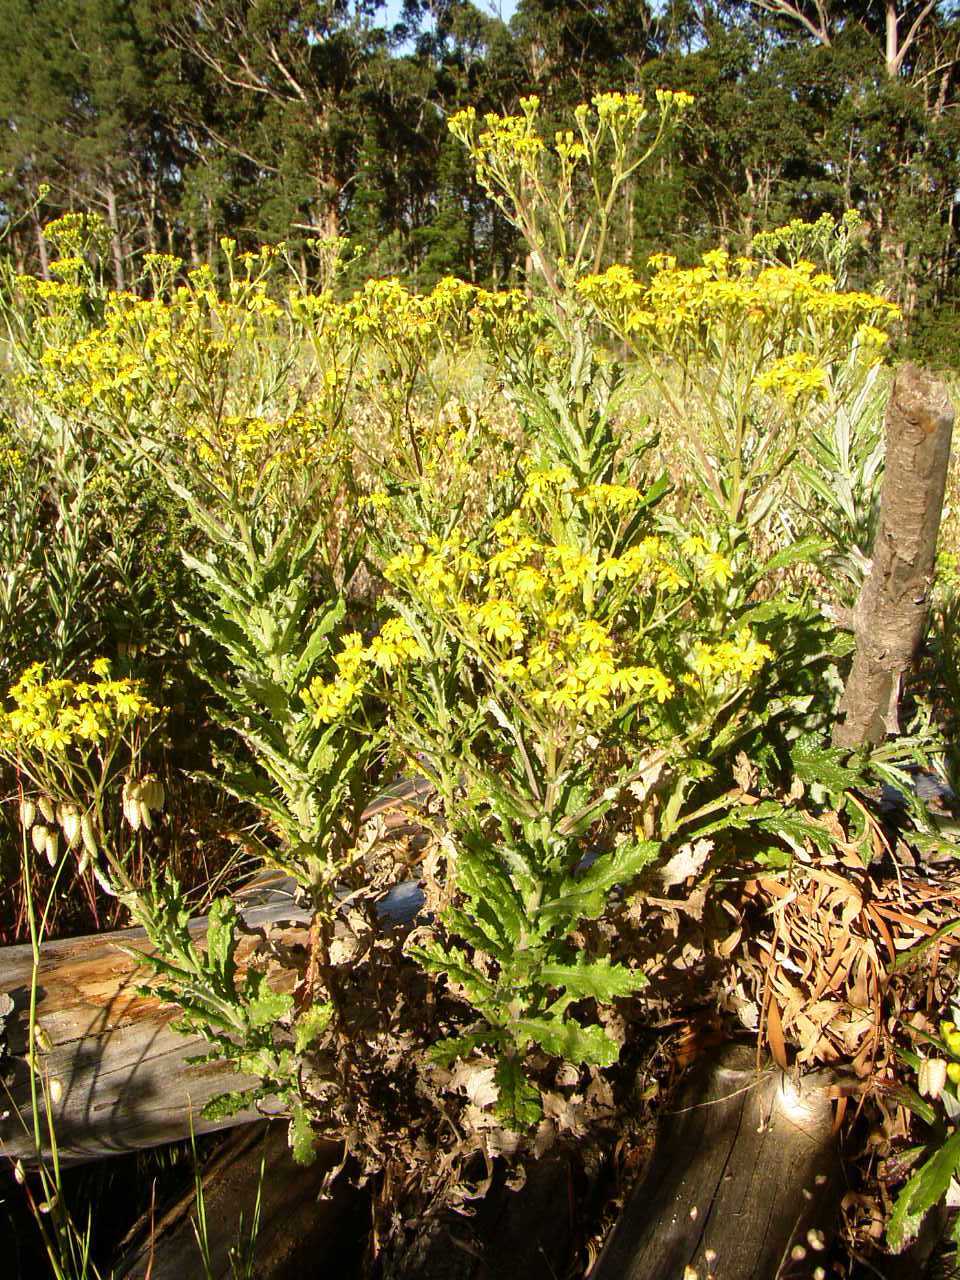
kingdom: Plantae
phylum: Tracheophyta
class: Magnoliopsida
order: Asterales
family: Asteraceae
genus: Senecio
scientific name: Senecio pterophorus
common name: Shoddy ragwort
